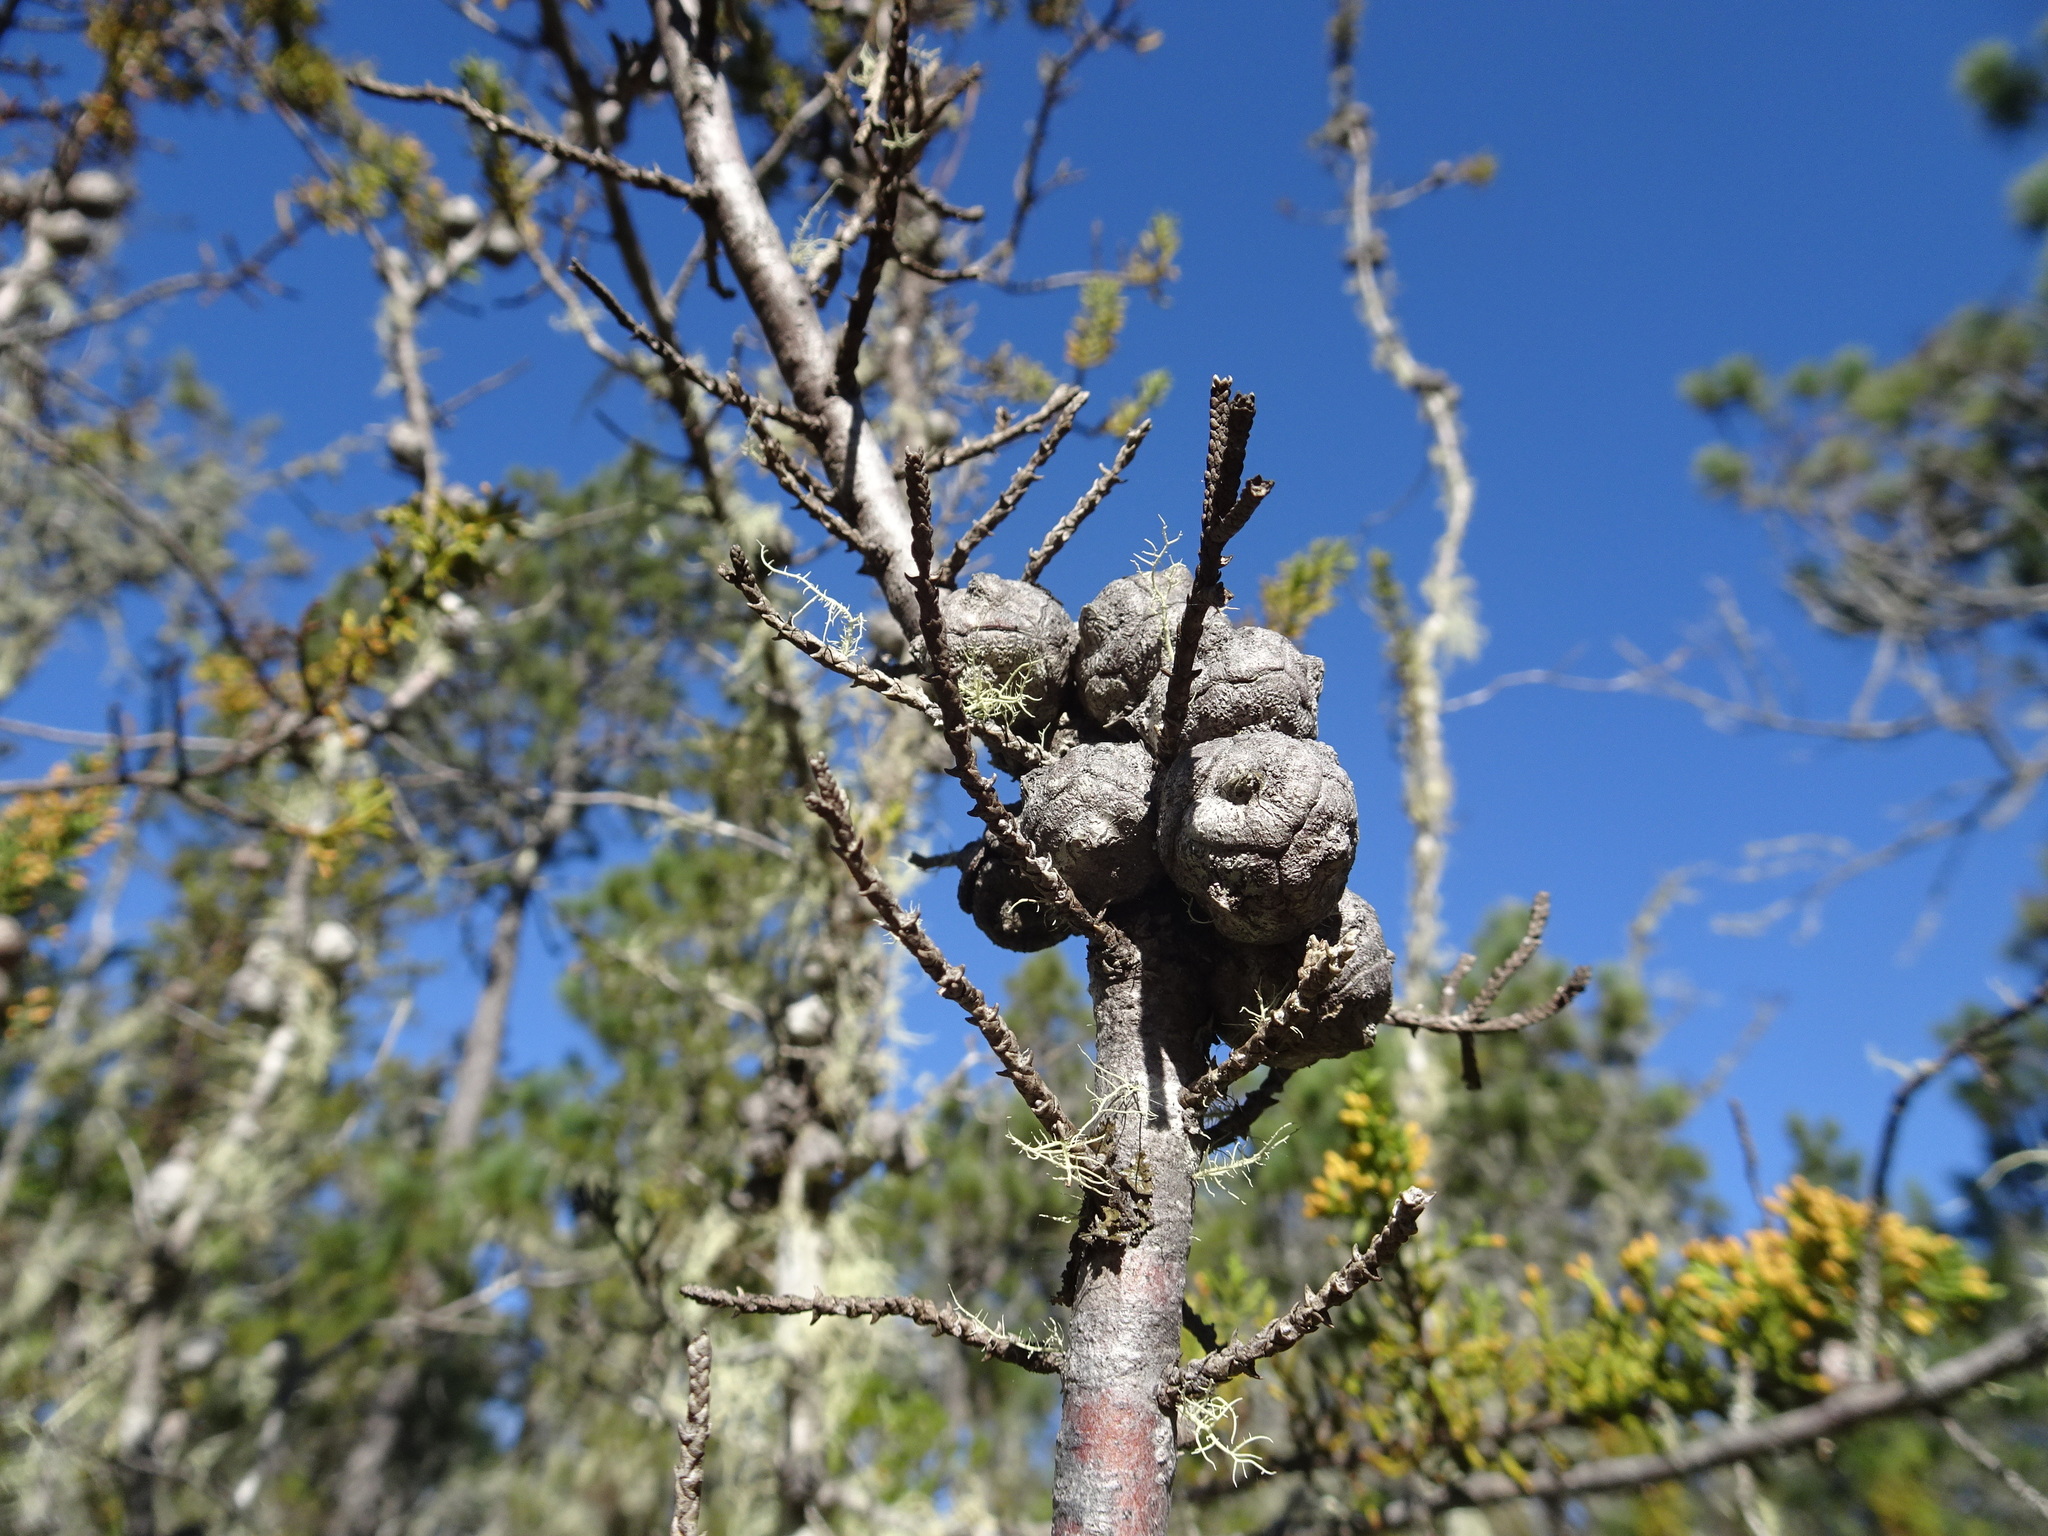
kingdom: Plantae
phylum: Tracheophyta
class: Pinopsida
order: Pinales
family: Cupressaceae
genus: Cupressus
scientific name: Cupressus goveniana
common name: Gowen cypress
